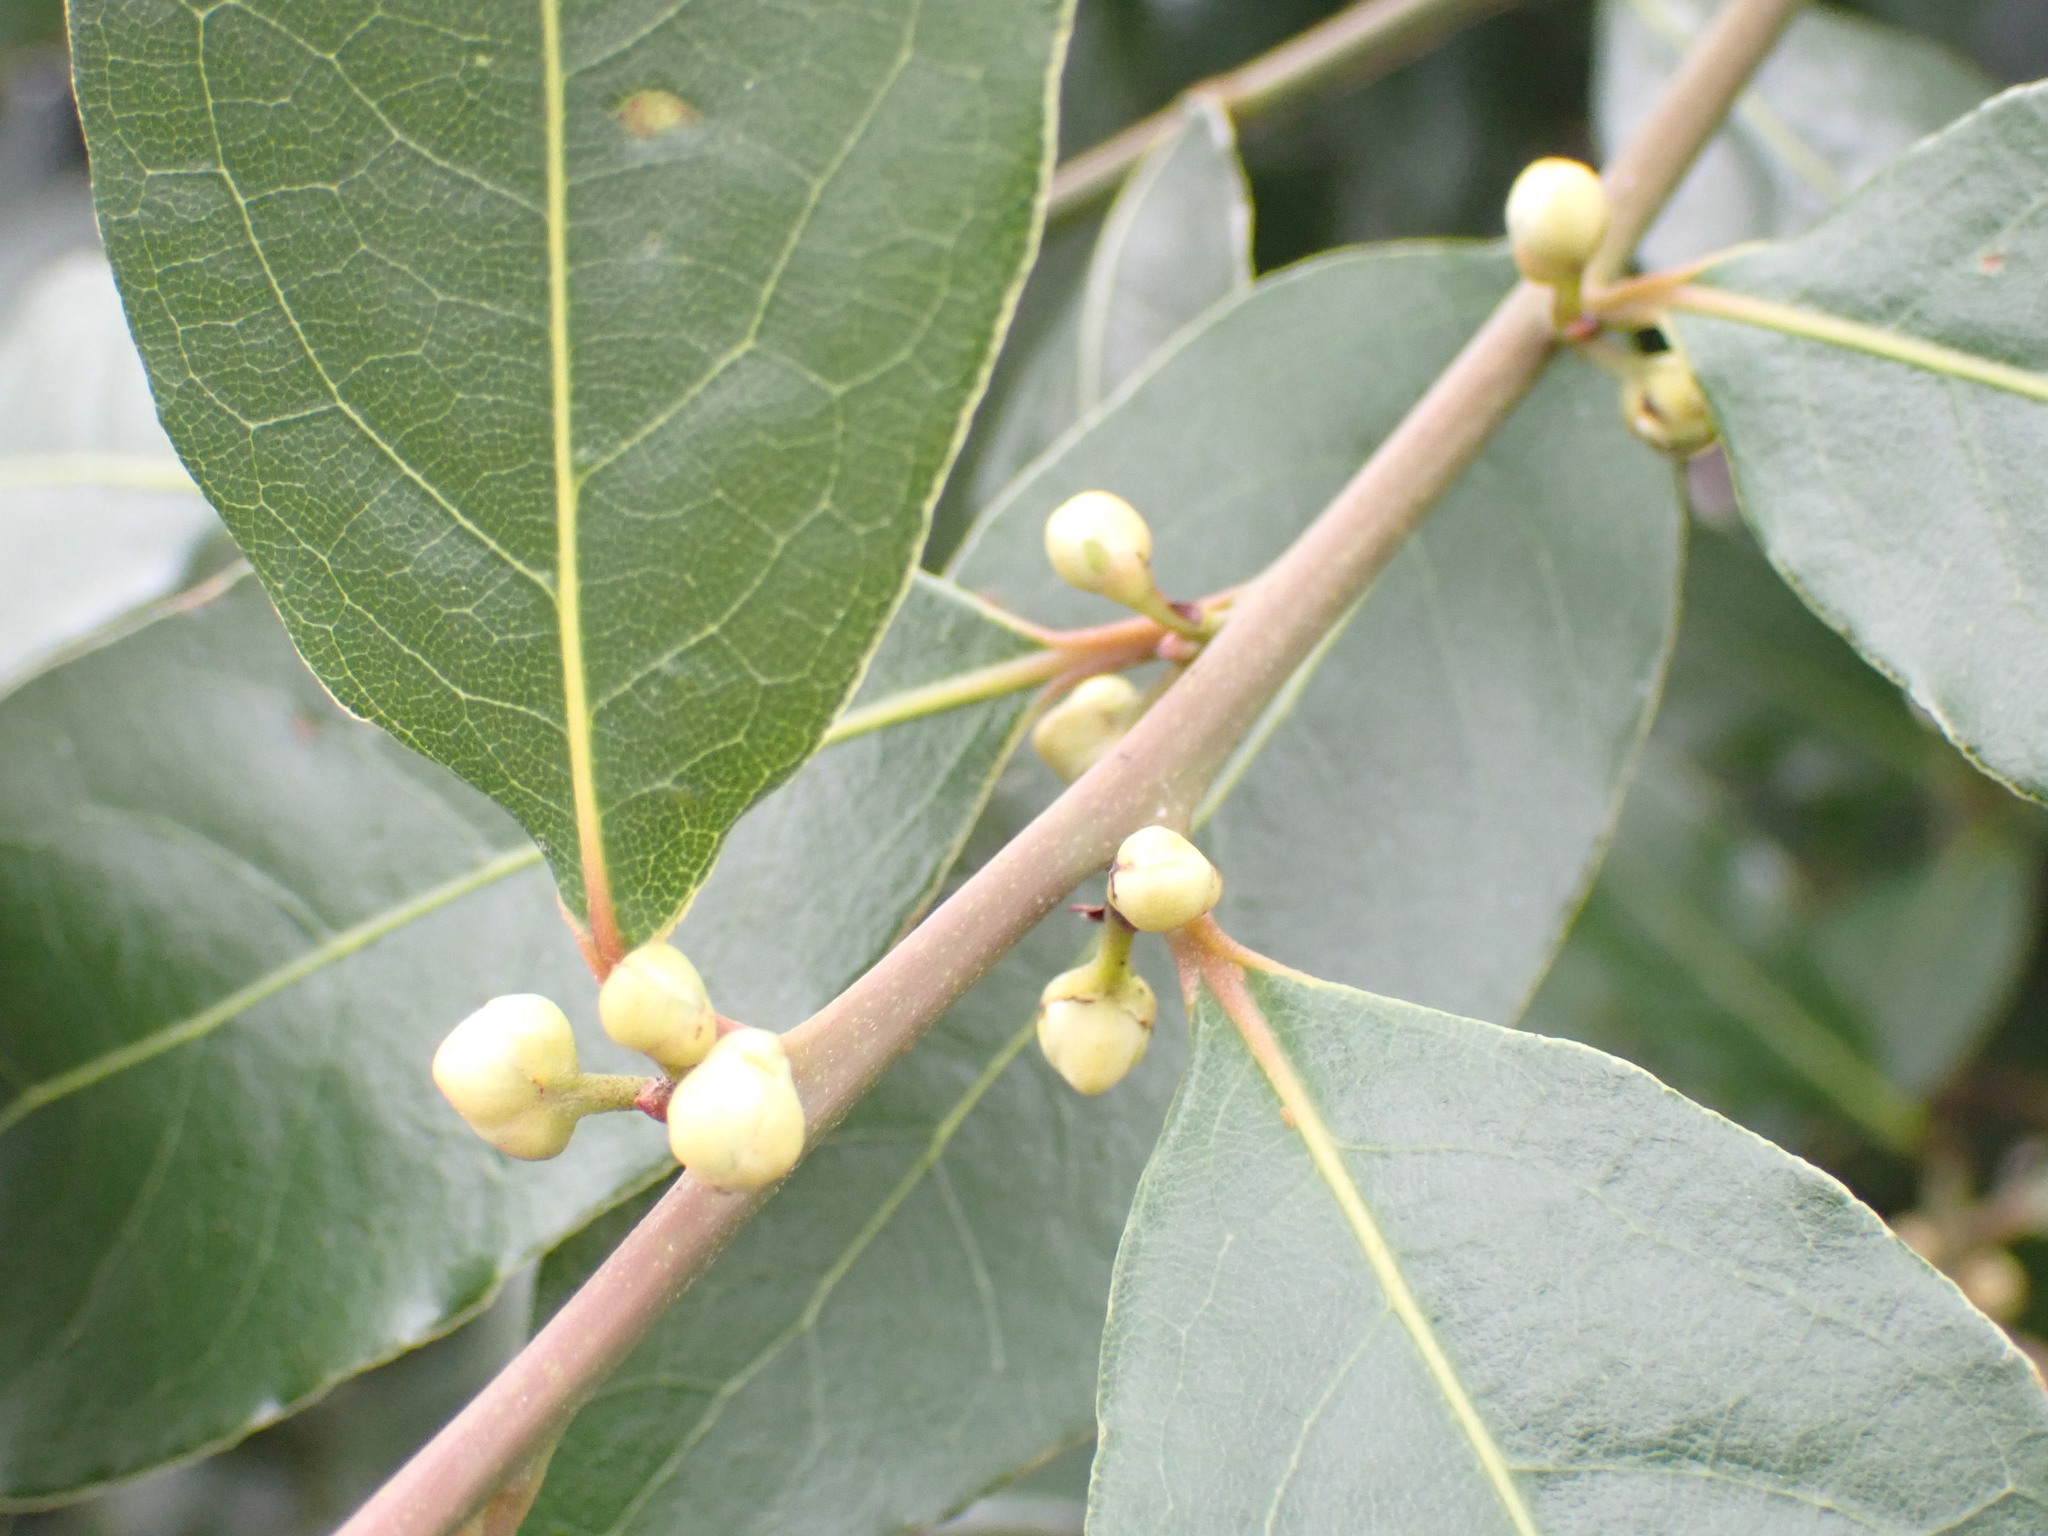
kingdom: Plantae
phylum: Tracheophyta
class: Magnoliopsida
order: Laurales
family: Lauraceae
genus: Laurus
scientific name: Laurus nobilis
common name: Bay
